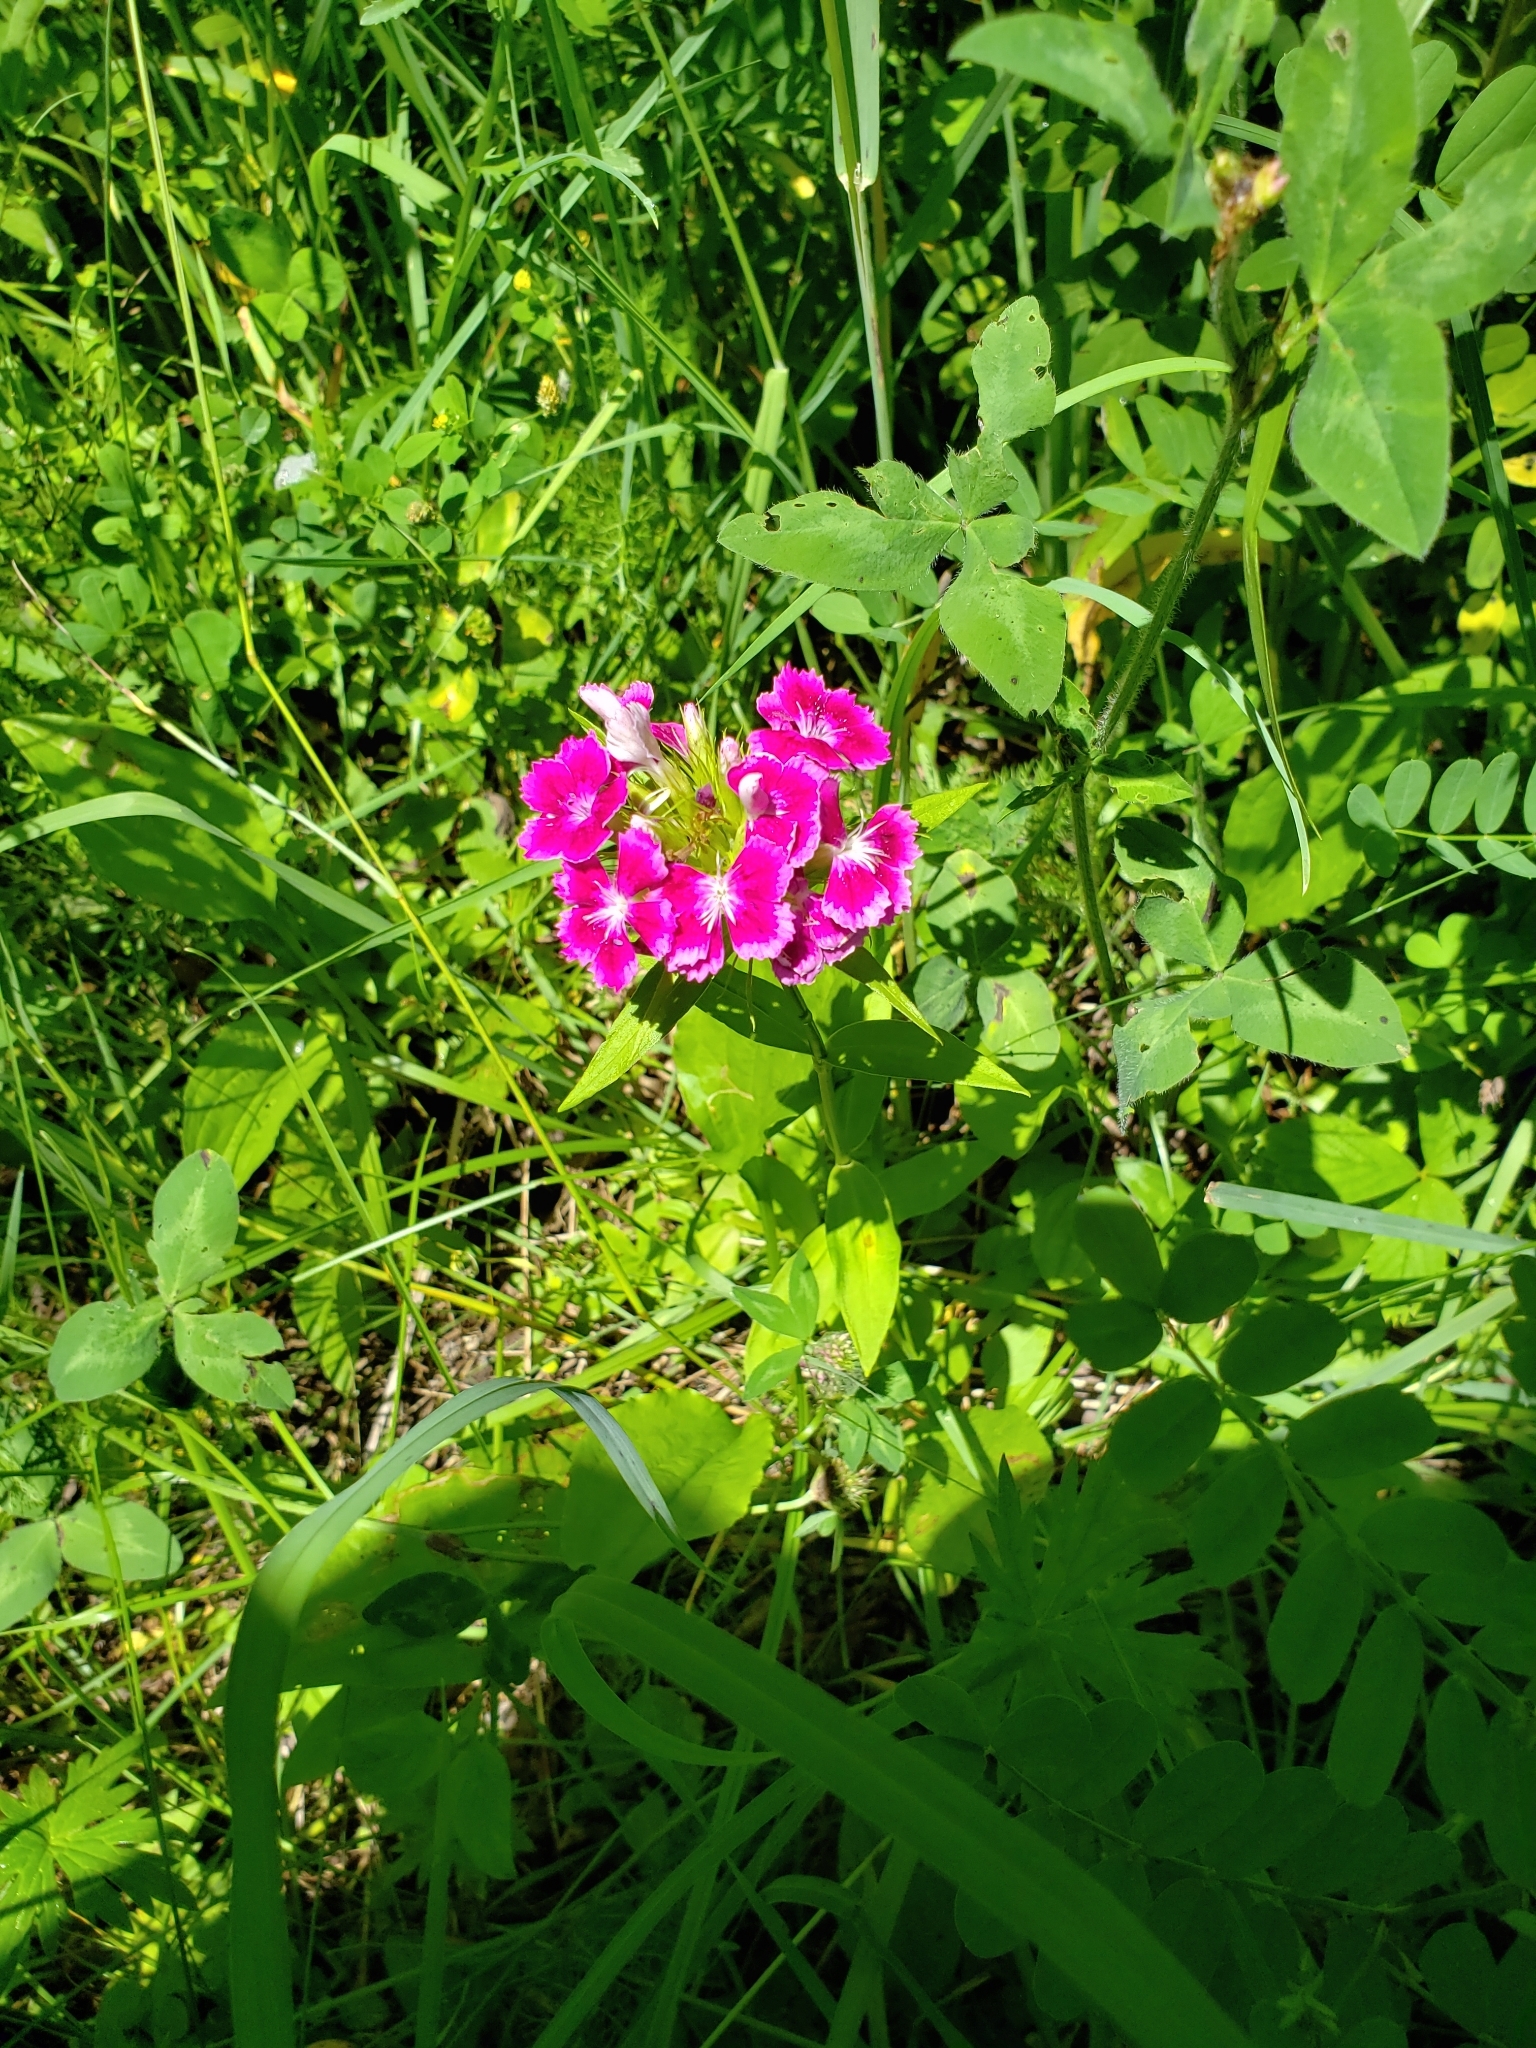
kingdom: Plantae
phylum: Tracheophyta
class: Magnoliopsida
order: Caryophyllales
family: Caryophyllaceae
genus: Dianthus
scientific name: Dianthus barbatus
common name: Sweet-william
